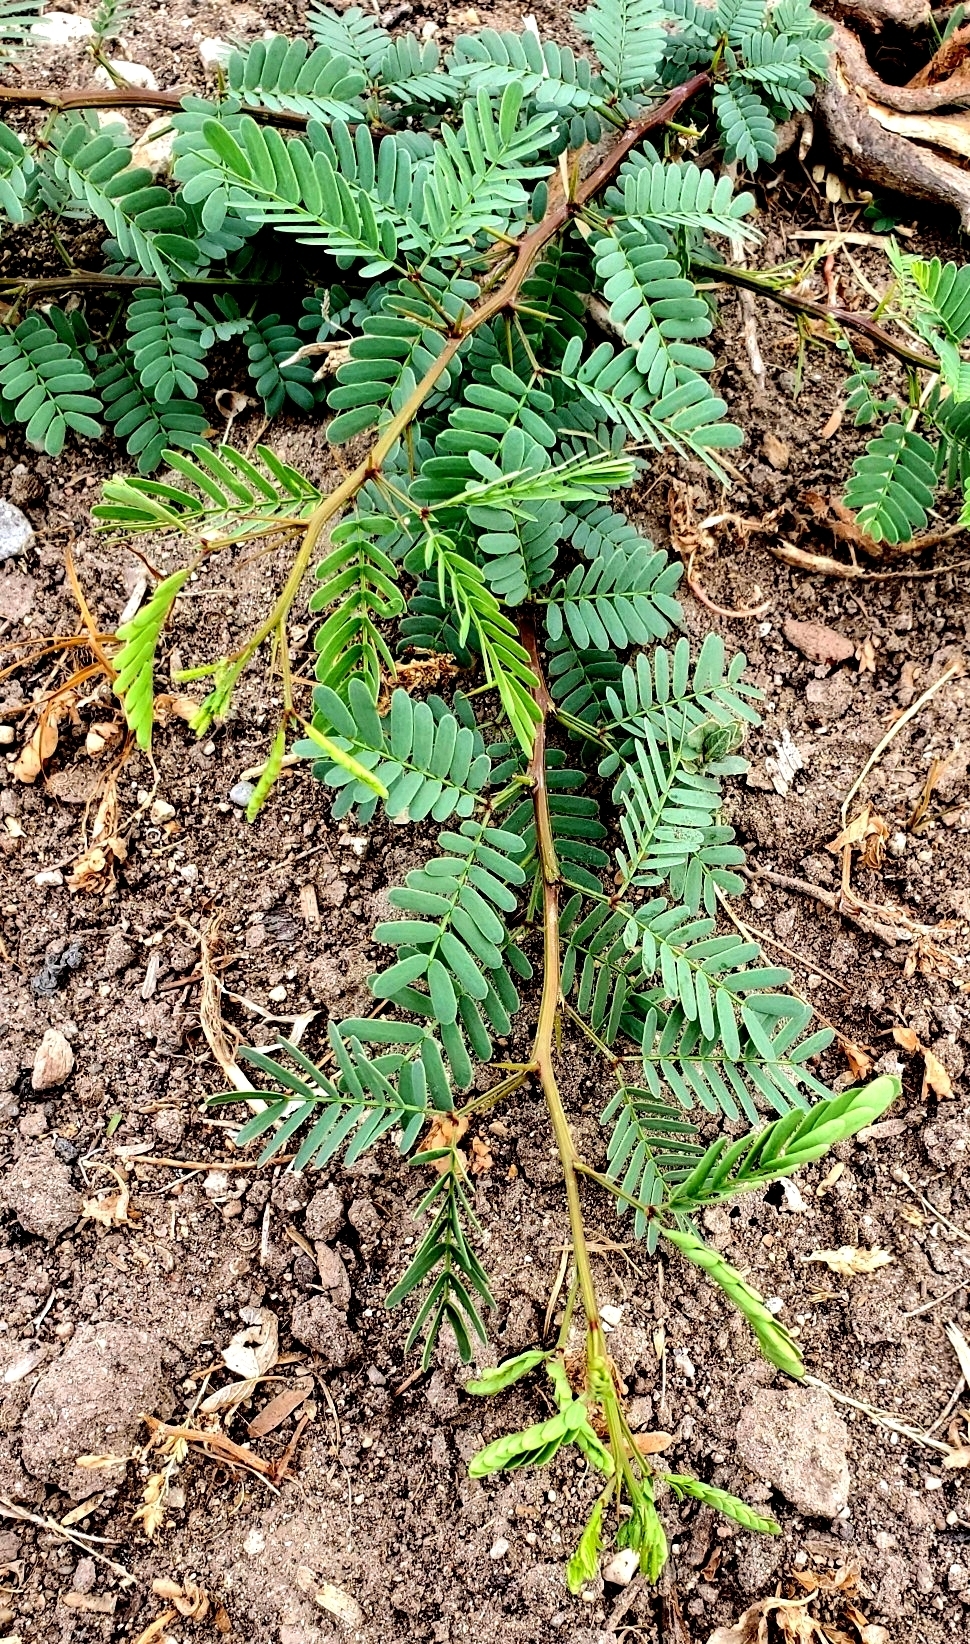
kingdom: Plantae
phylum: Tracheophyta
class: Magnoliopsida
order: Fabales
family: Fabaceae
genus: Prosopis
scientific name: Prosopis glandulosa
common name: Honey mesquite
